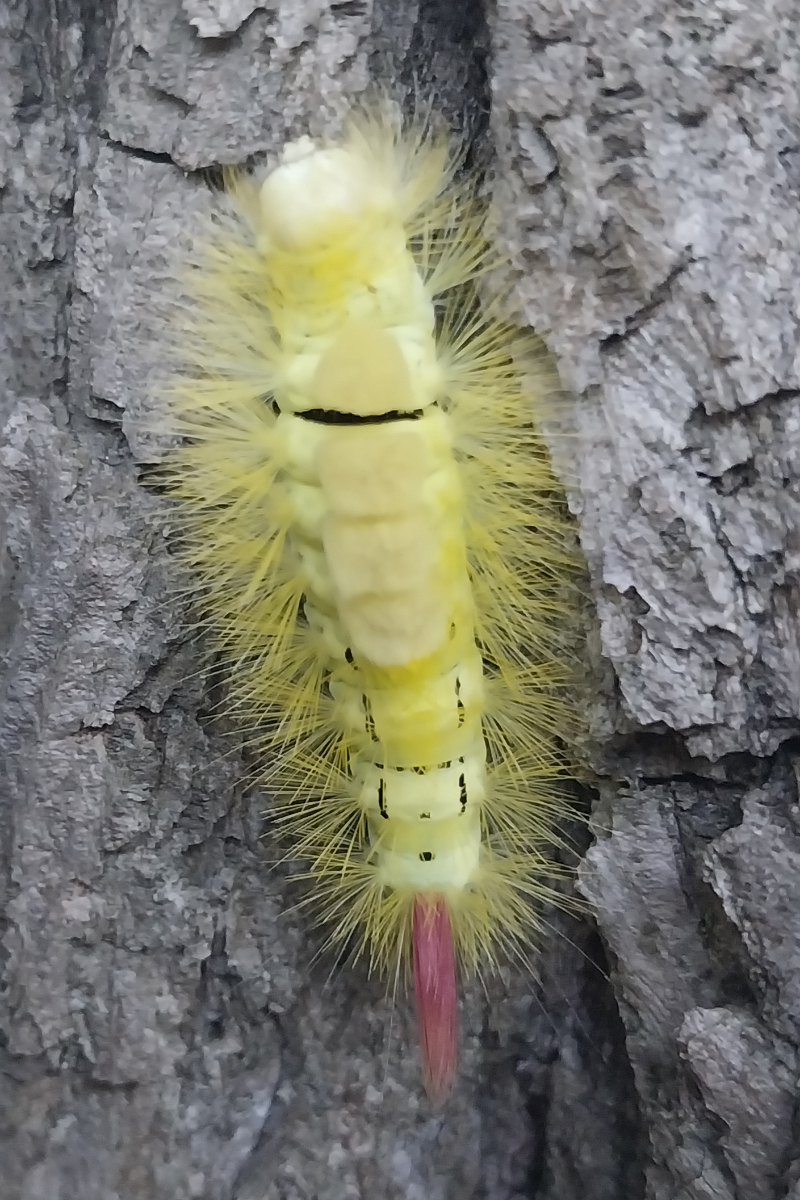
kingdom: Animalia
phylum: Arthropoda
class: Insecta
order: Lepidoptera
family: Erebidae
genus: Calliteara
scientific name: Calliteara pudibunda
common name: Pale tussock
